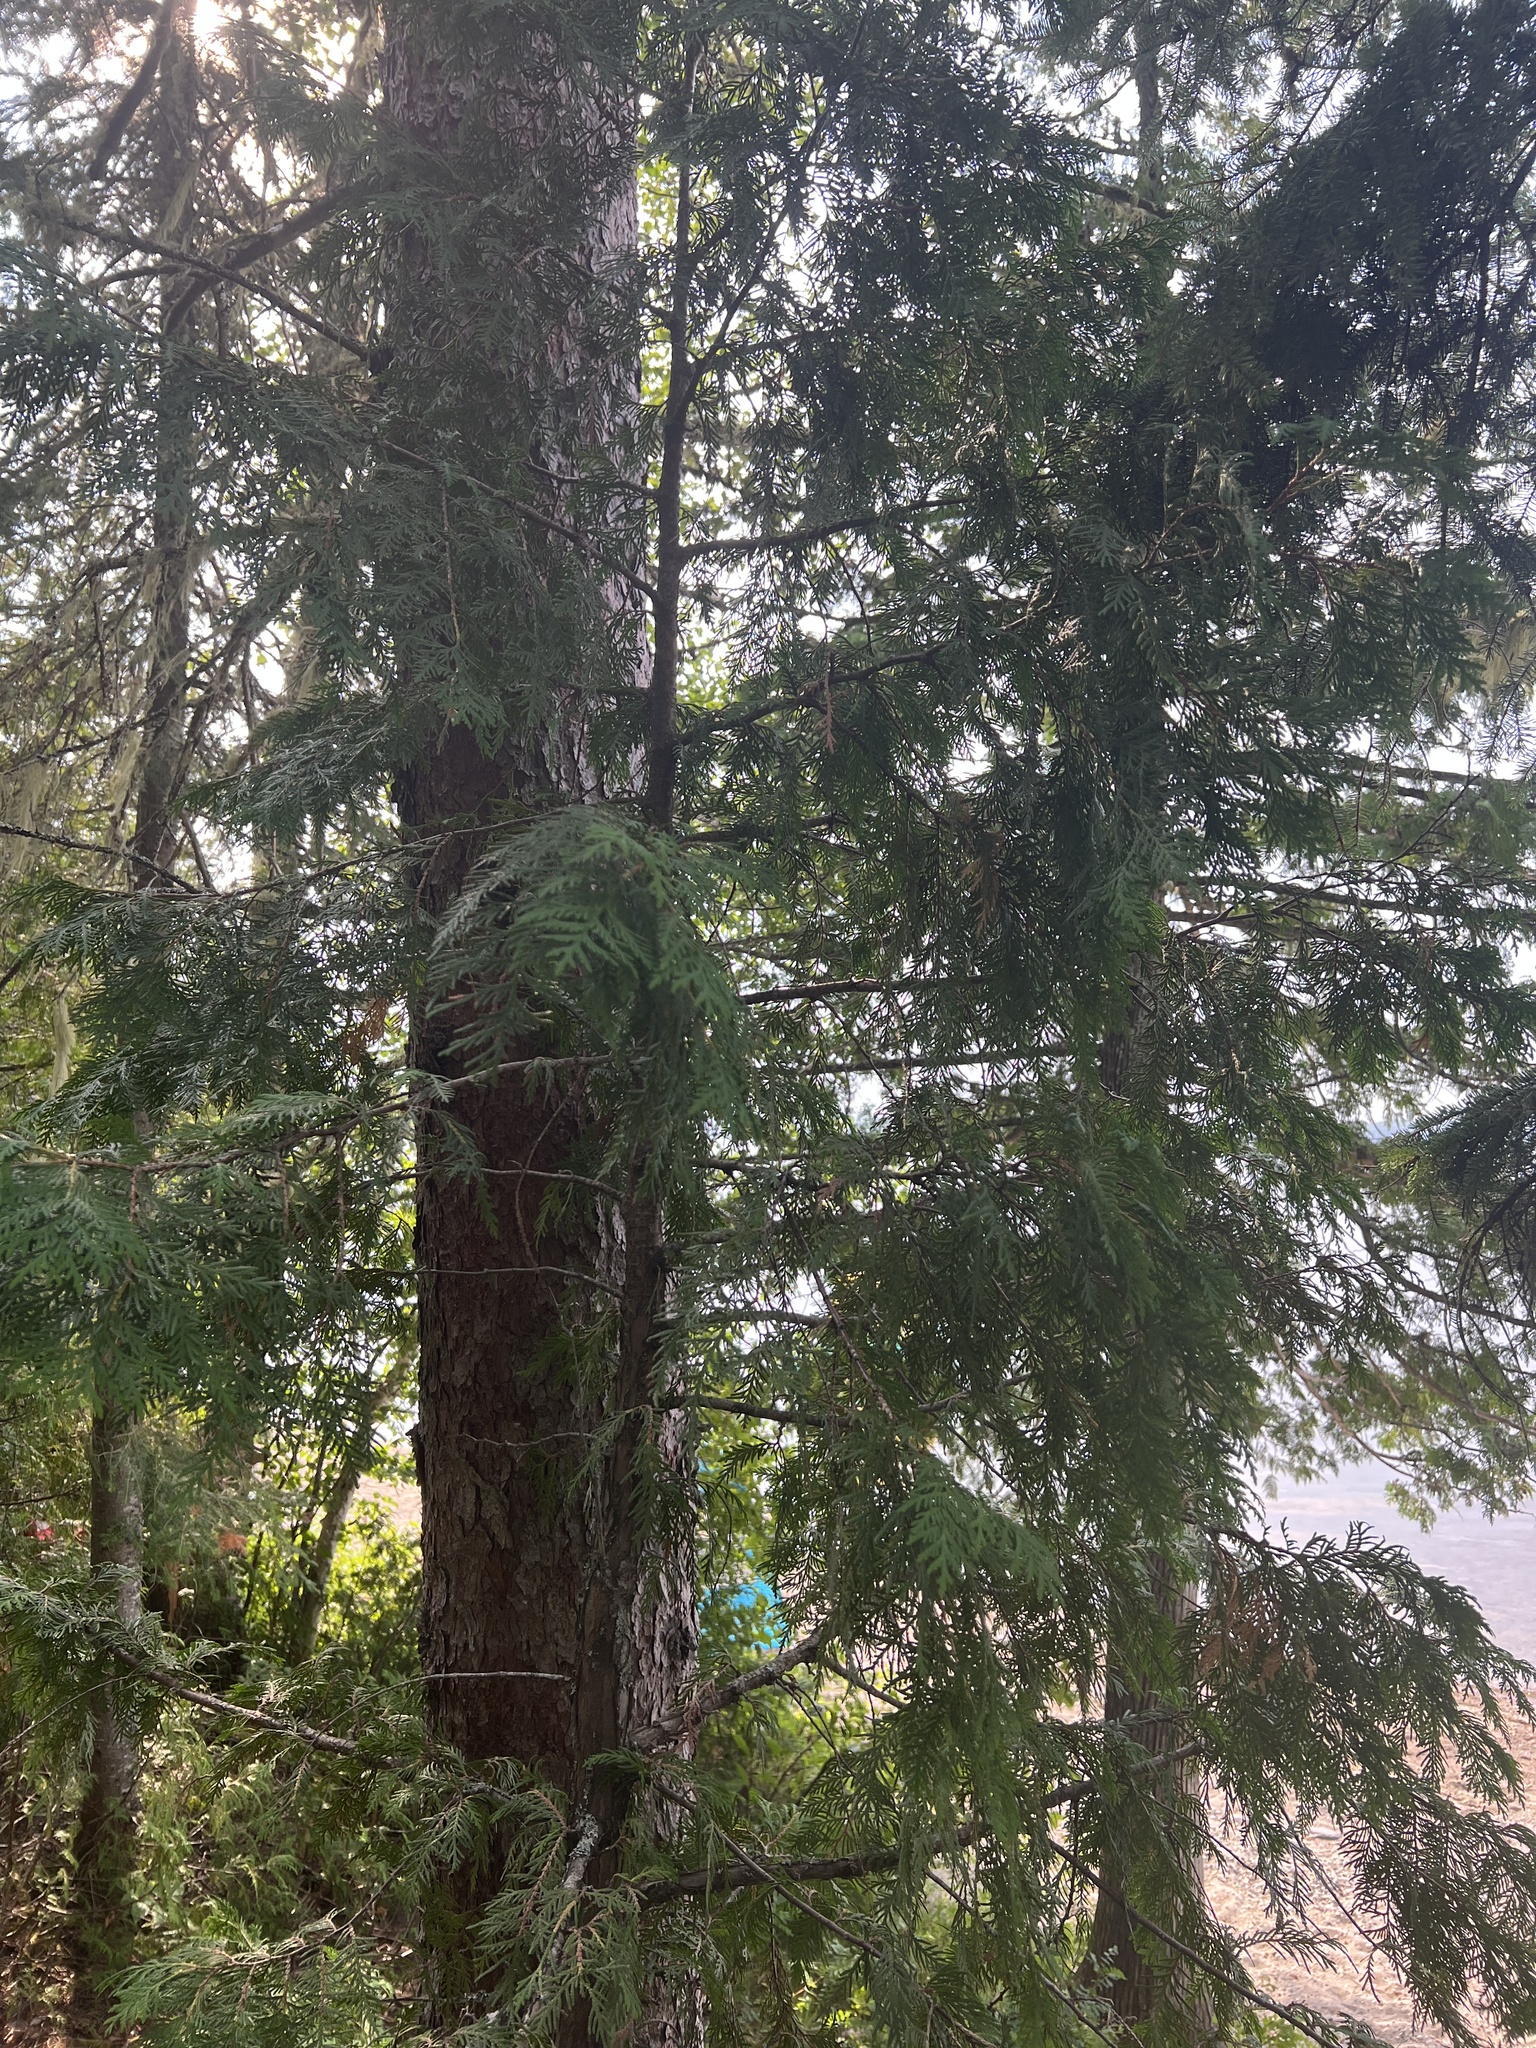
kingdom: Plantae
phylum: Tracheophyta
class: Pinopsida
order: Pinales
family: Cupressaceae
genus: Thuja
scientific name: Thuja occidentalis
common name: Northern white-cedar
